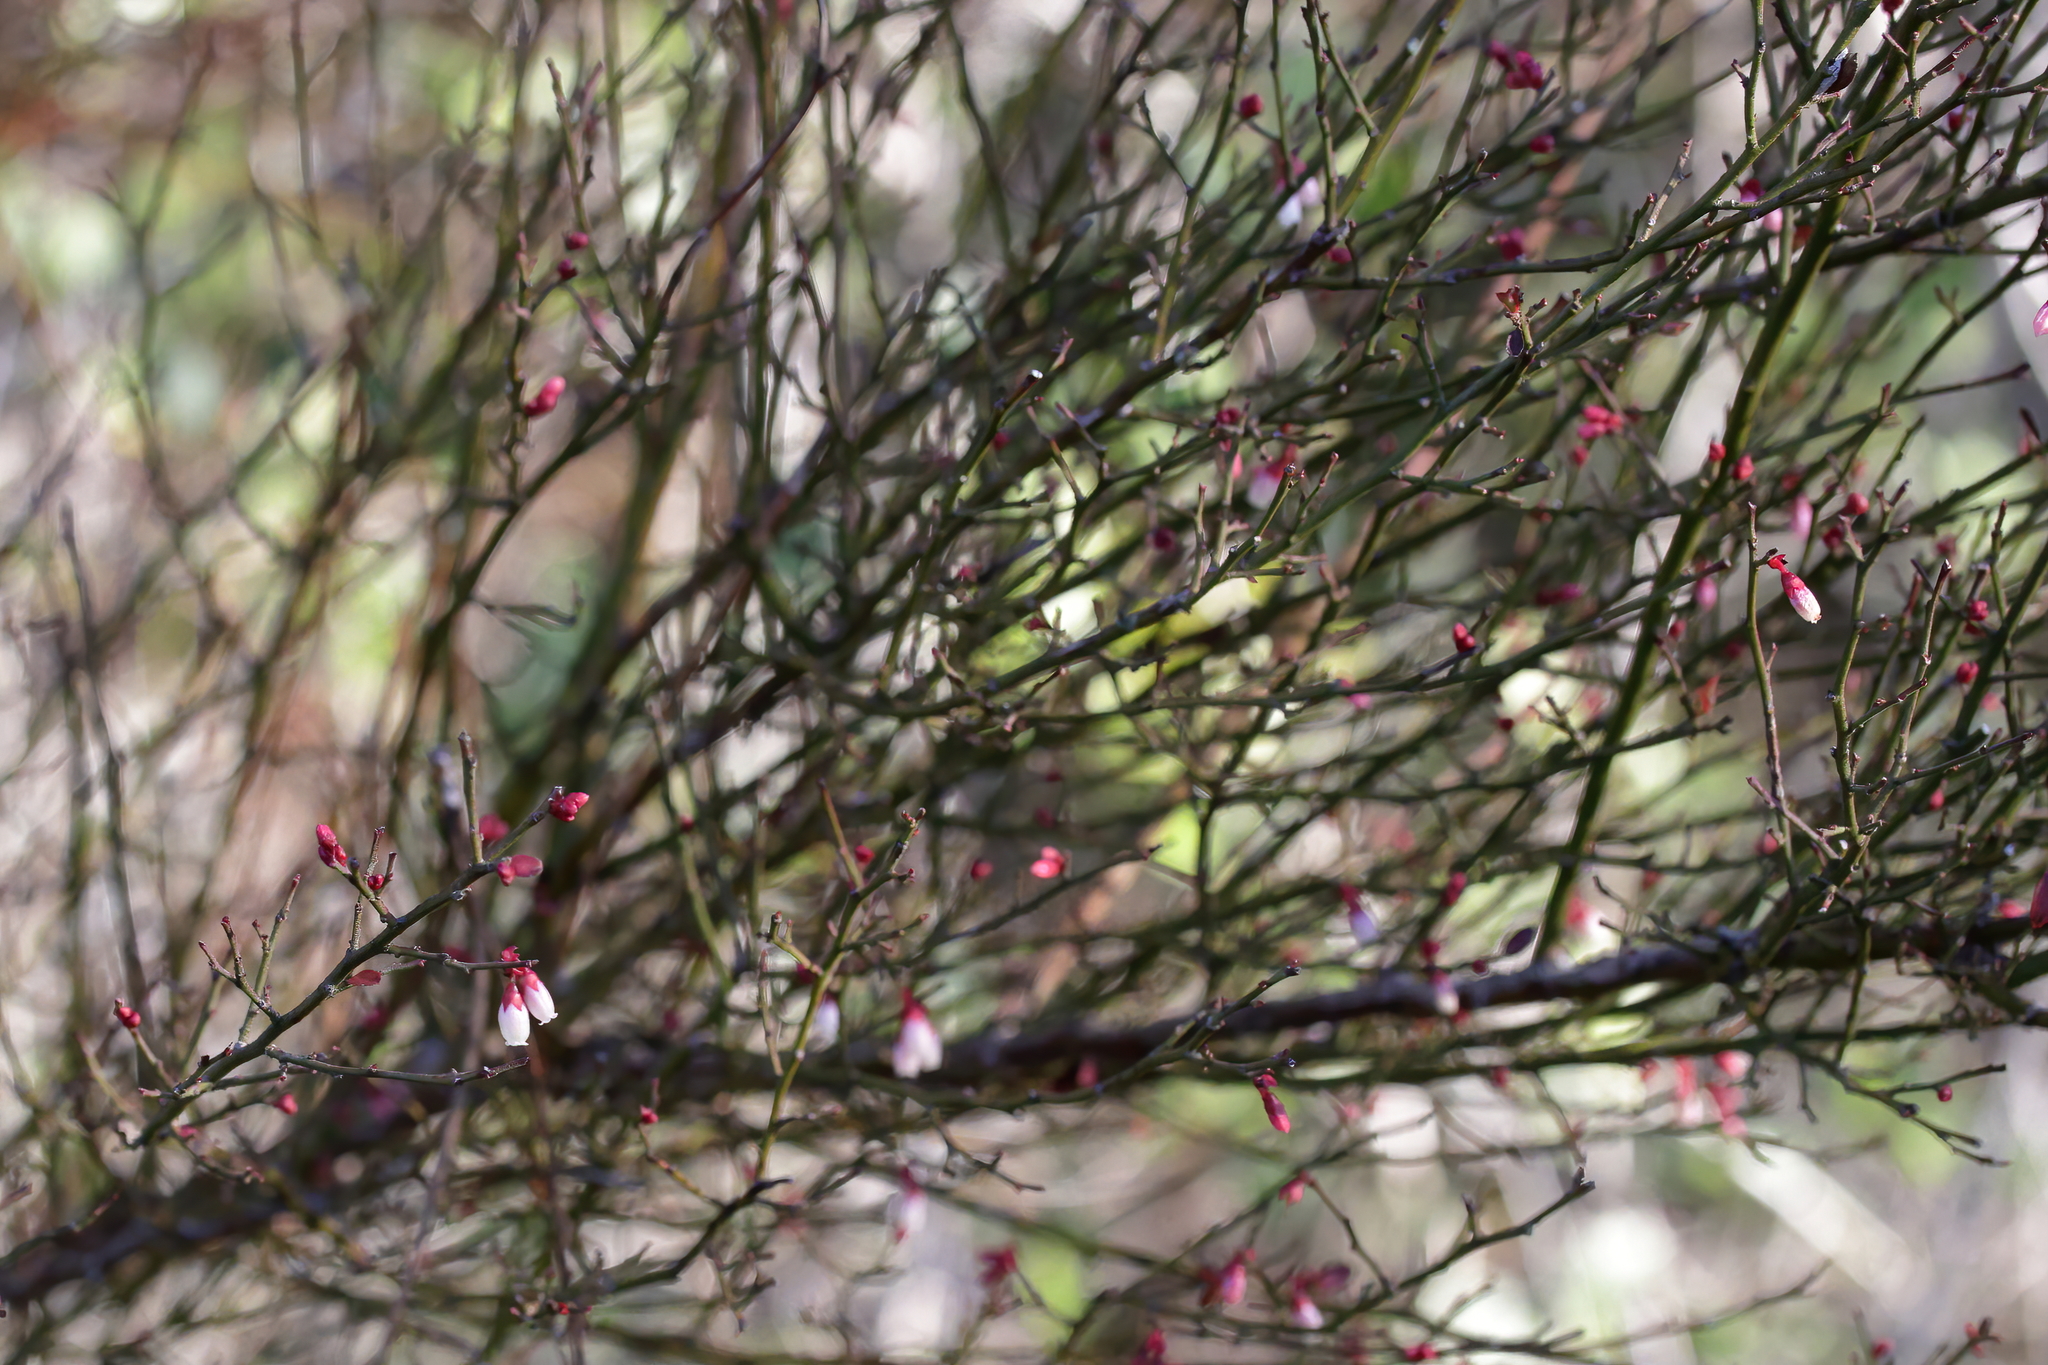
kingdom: Plantae
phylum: Tracheophyta
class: Magnoliopsida
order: Ericales
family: Ericaceae
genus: Vaccinium
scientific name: Vaccinium corymbosum
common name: Blueberry
